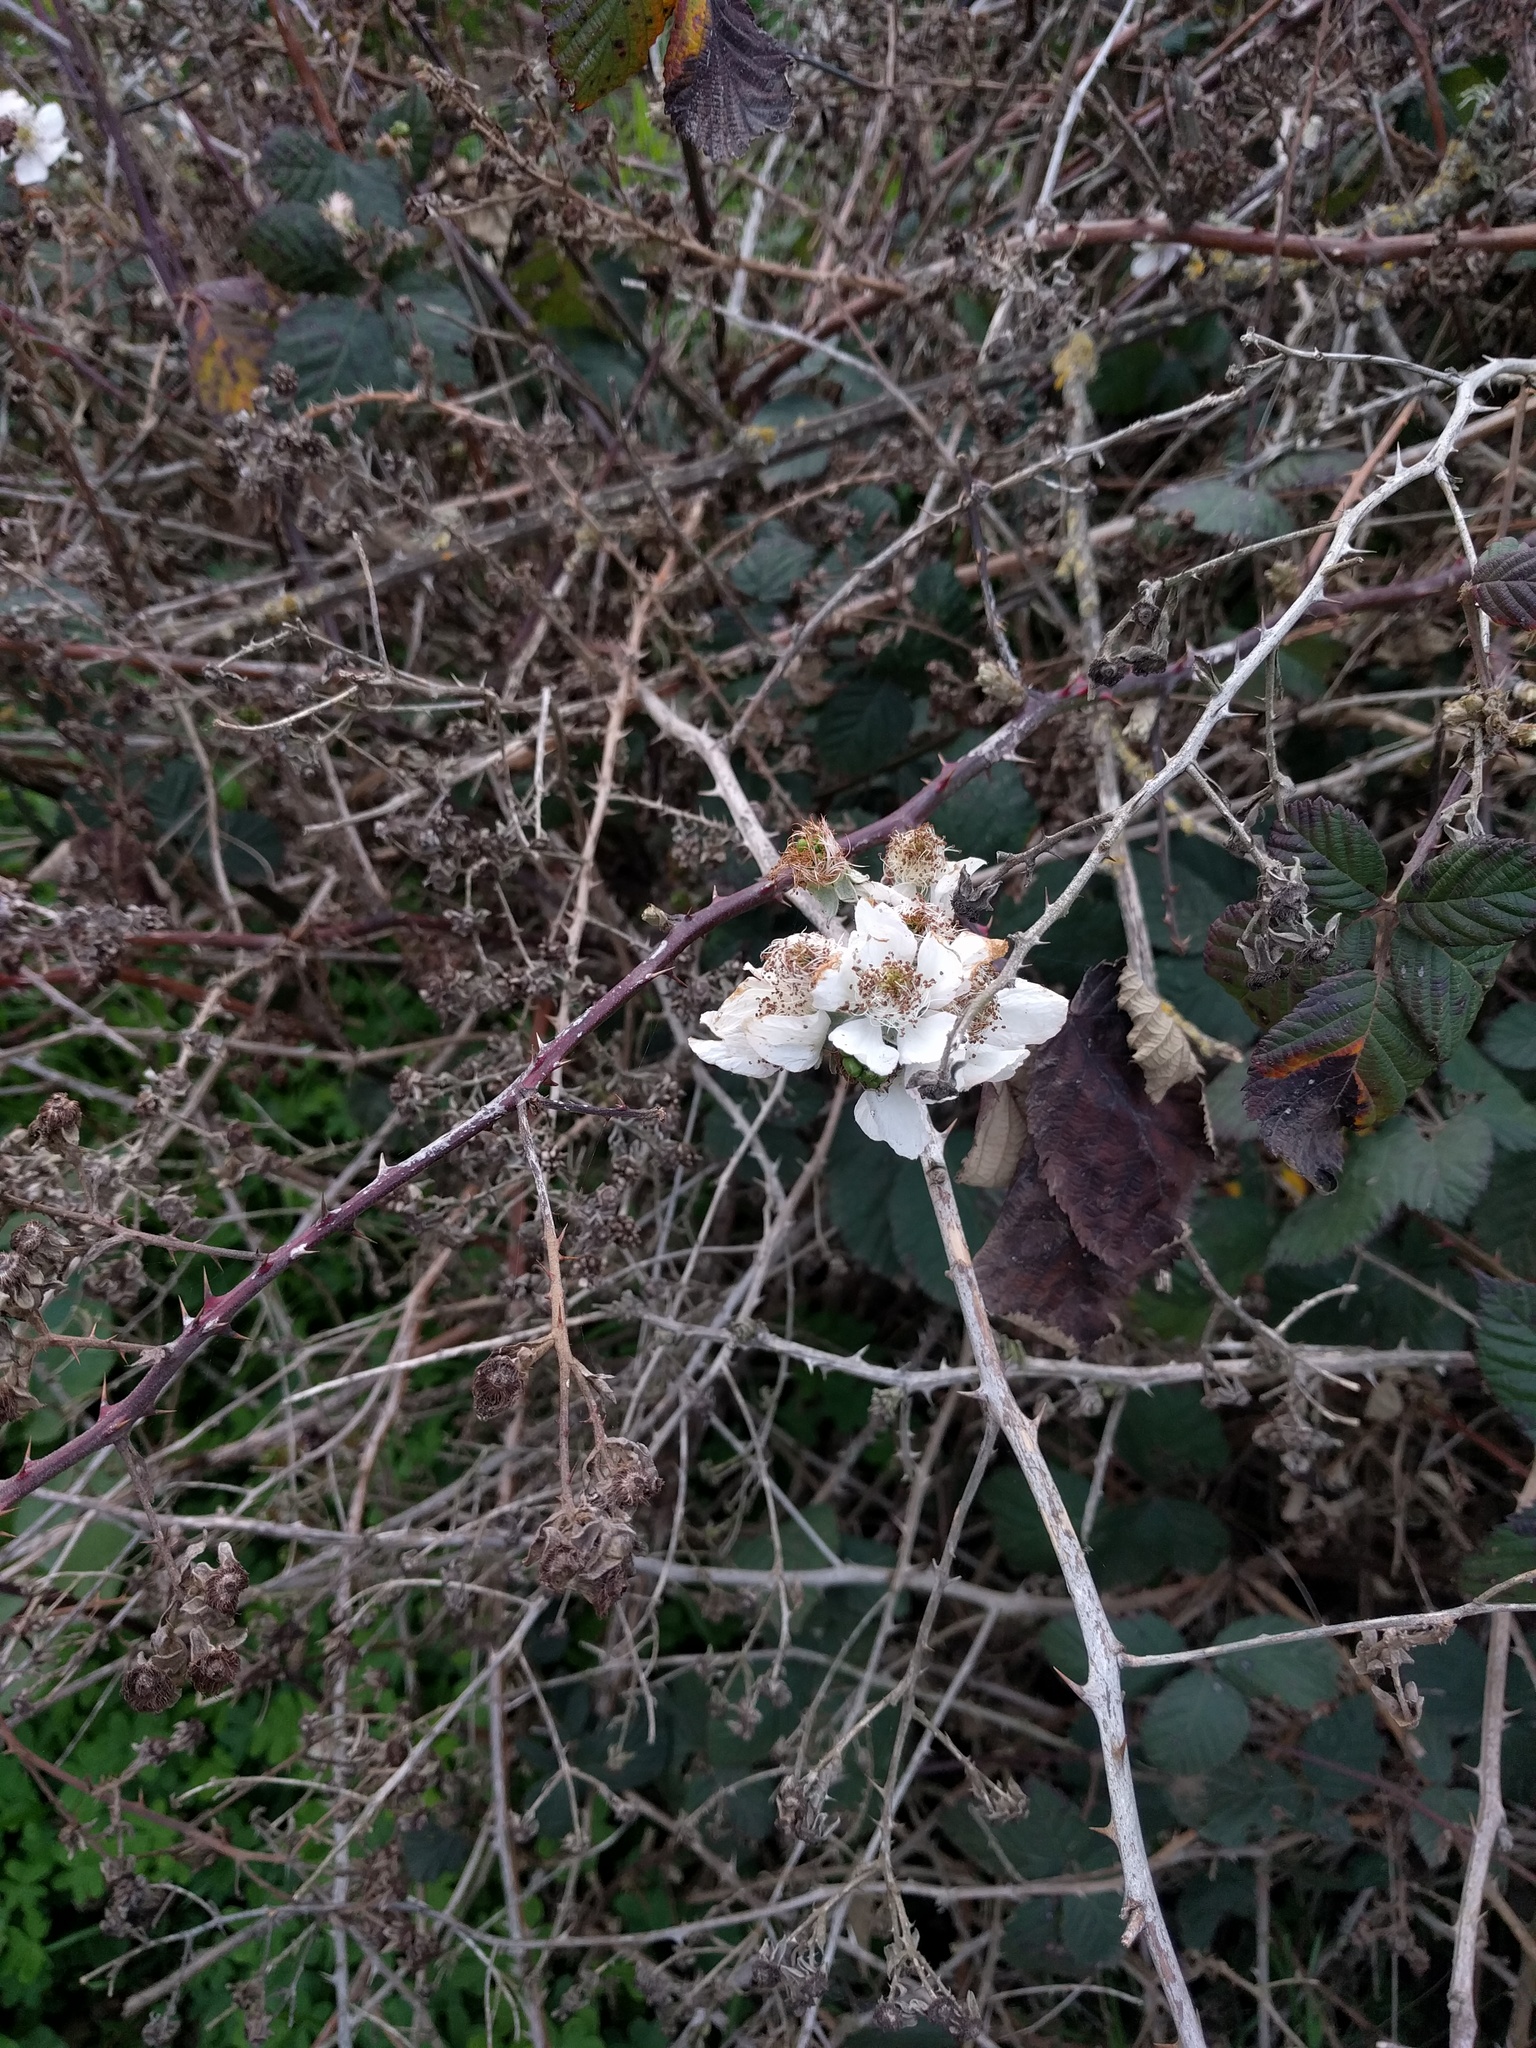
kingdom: Plantae
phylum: Tracheophyta
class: Magnoliopsida
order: Rosales
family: Rosaceae
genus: Rubus
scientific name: Rubus armeniacus
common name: Himalayan blackberry
